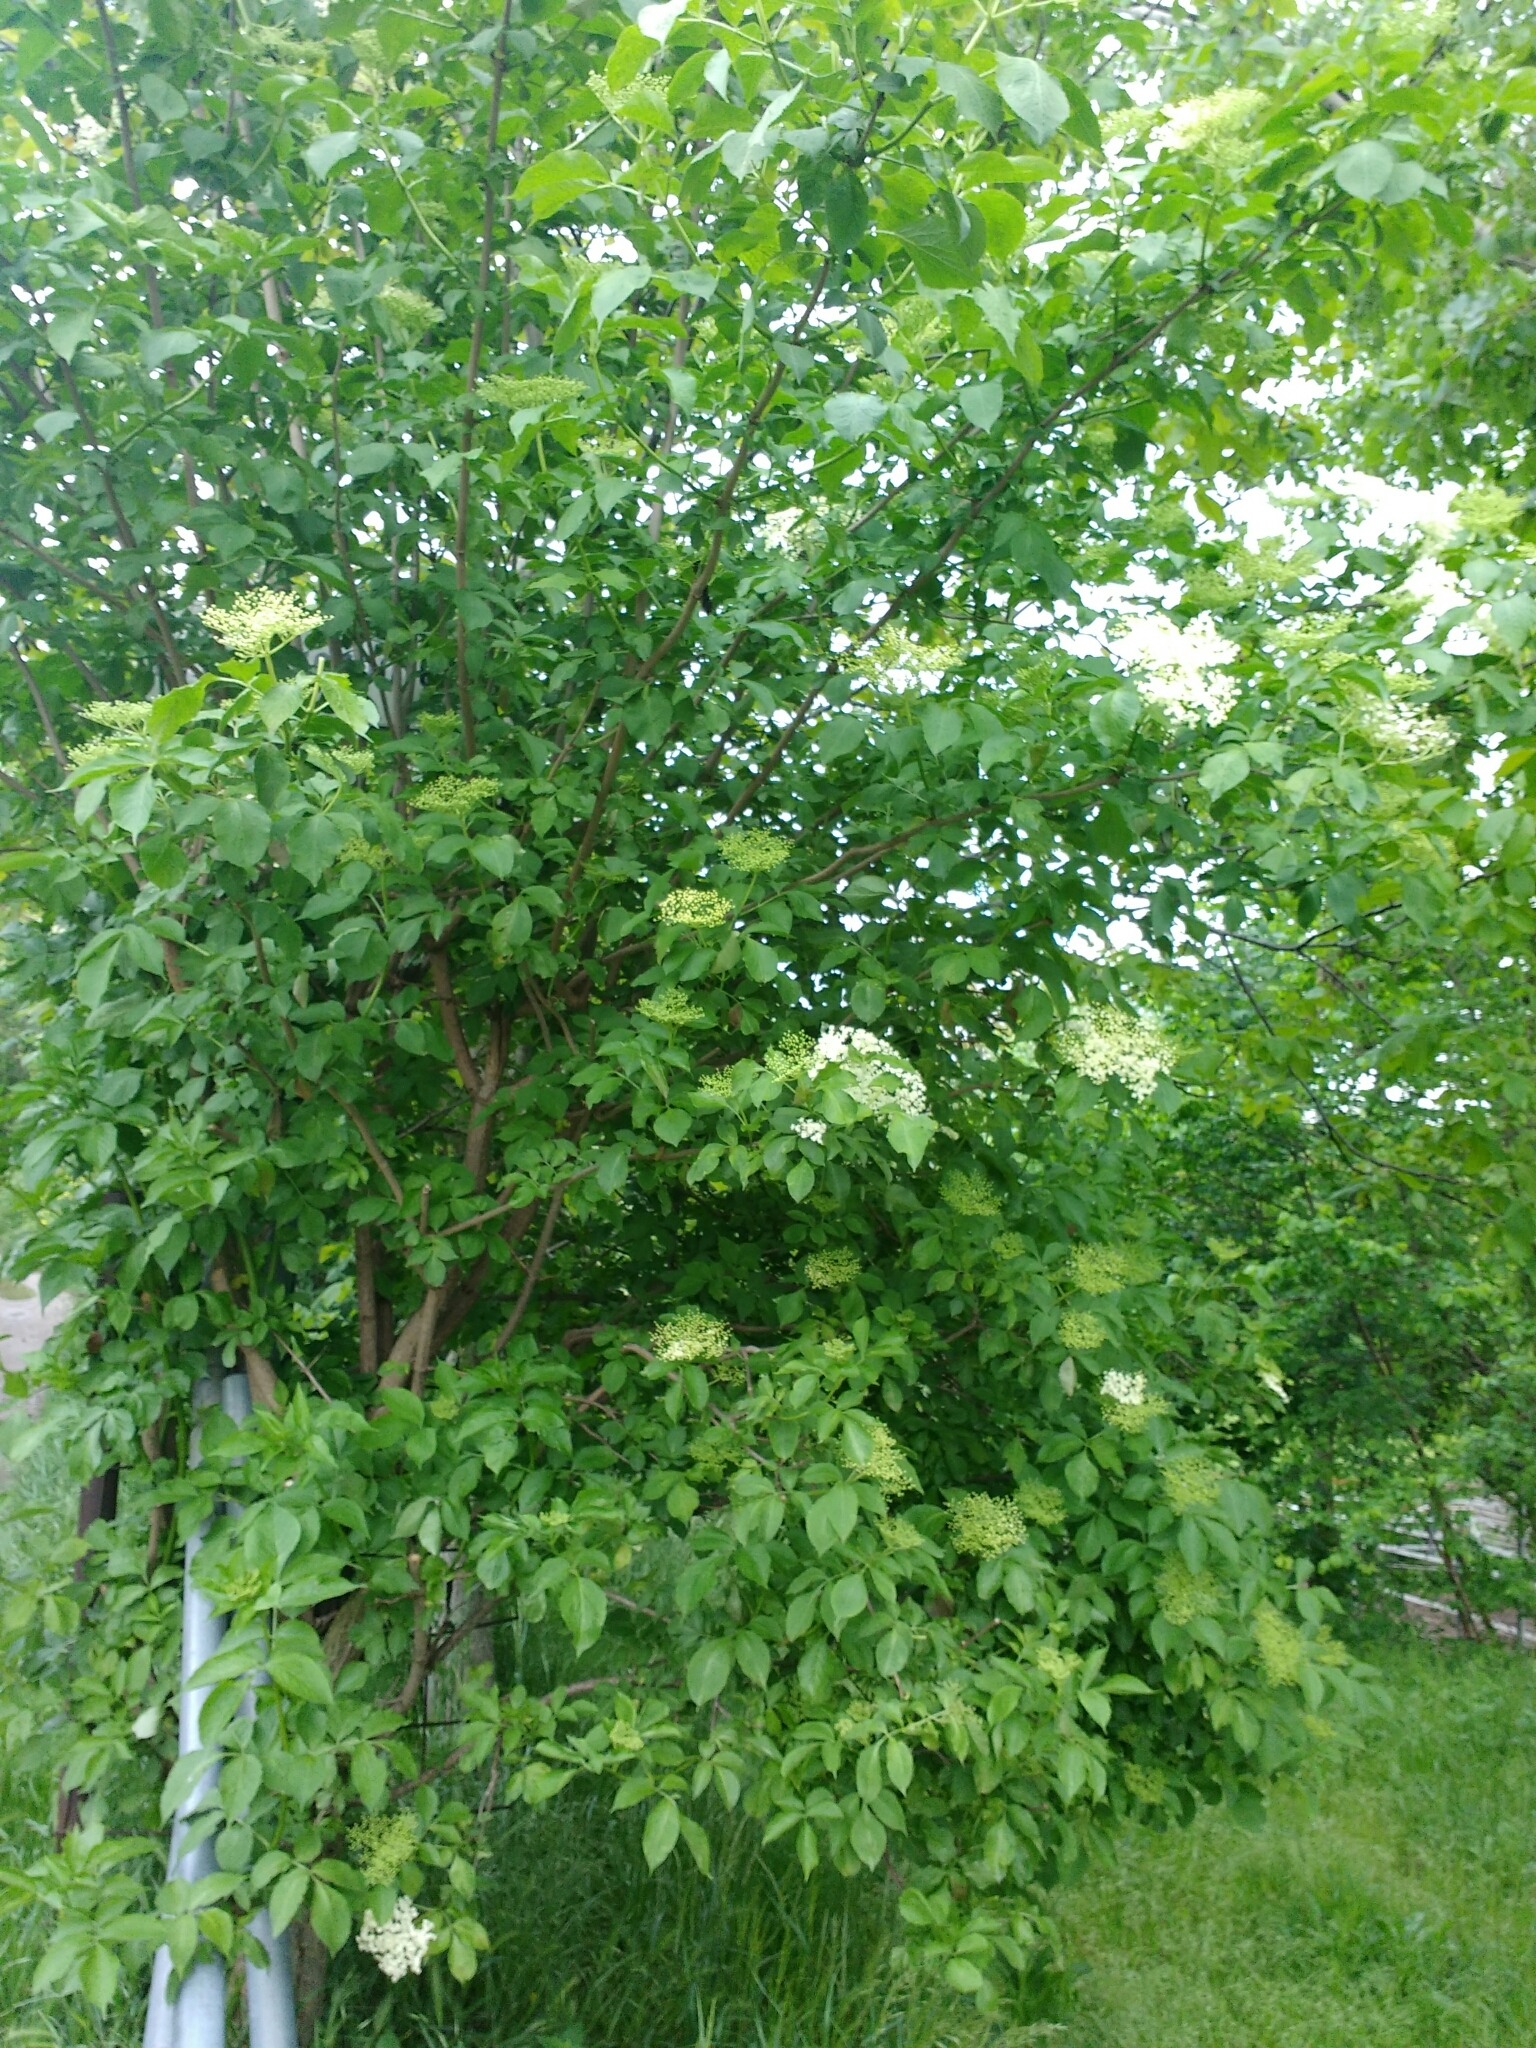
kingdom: Plantae
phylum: Tracheophyta
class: Magnoliopsida
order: Dipsacales
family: Viburnaceae
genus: Sambucus
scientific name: Sambucus nigra
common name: Elder
